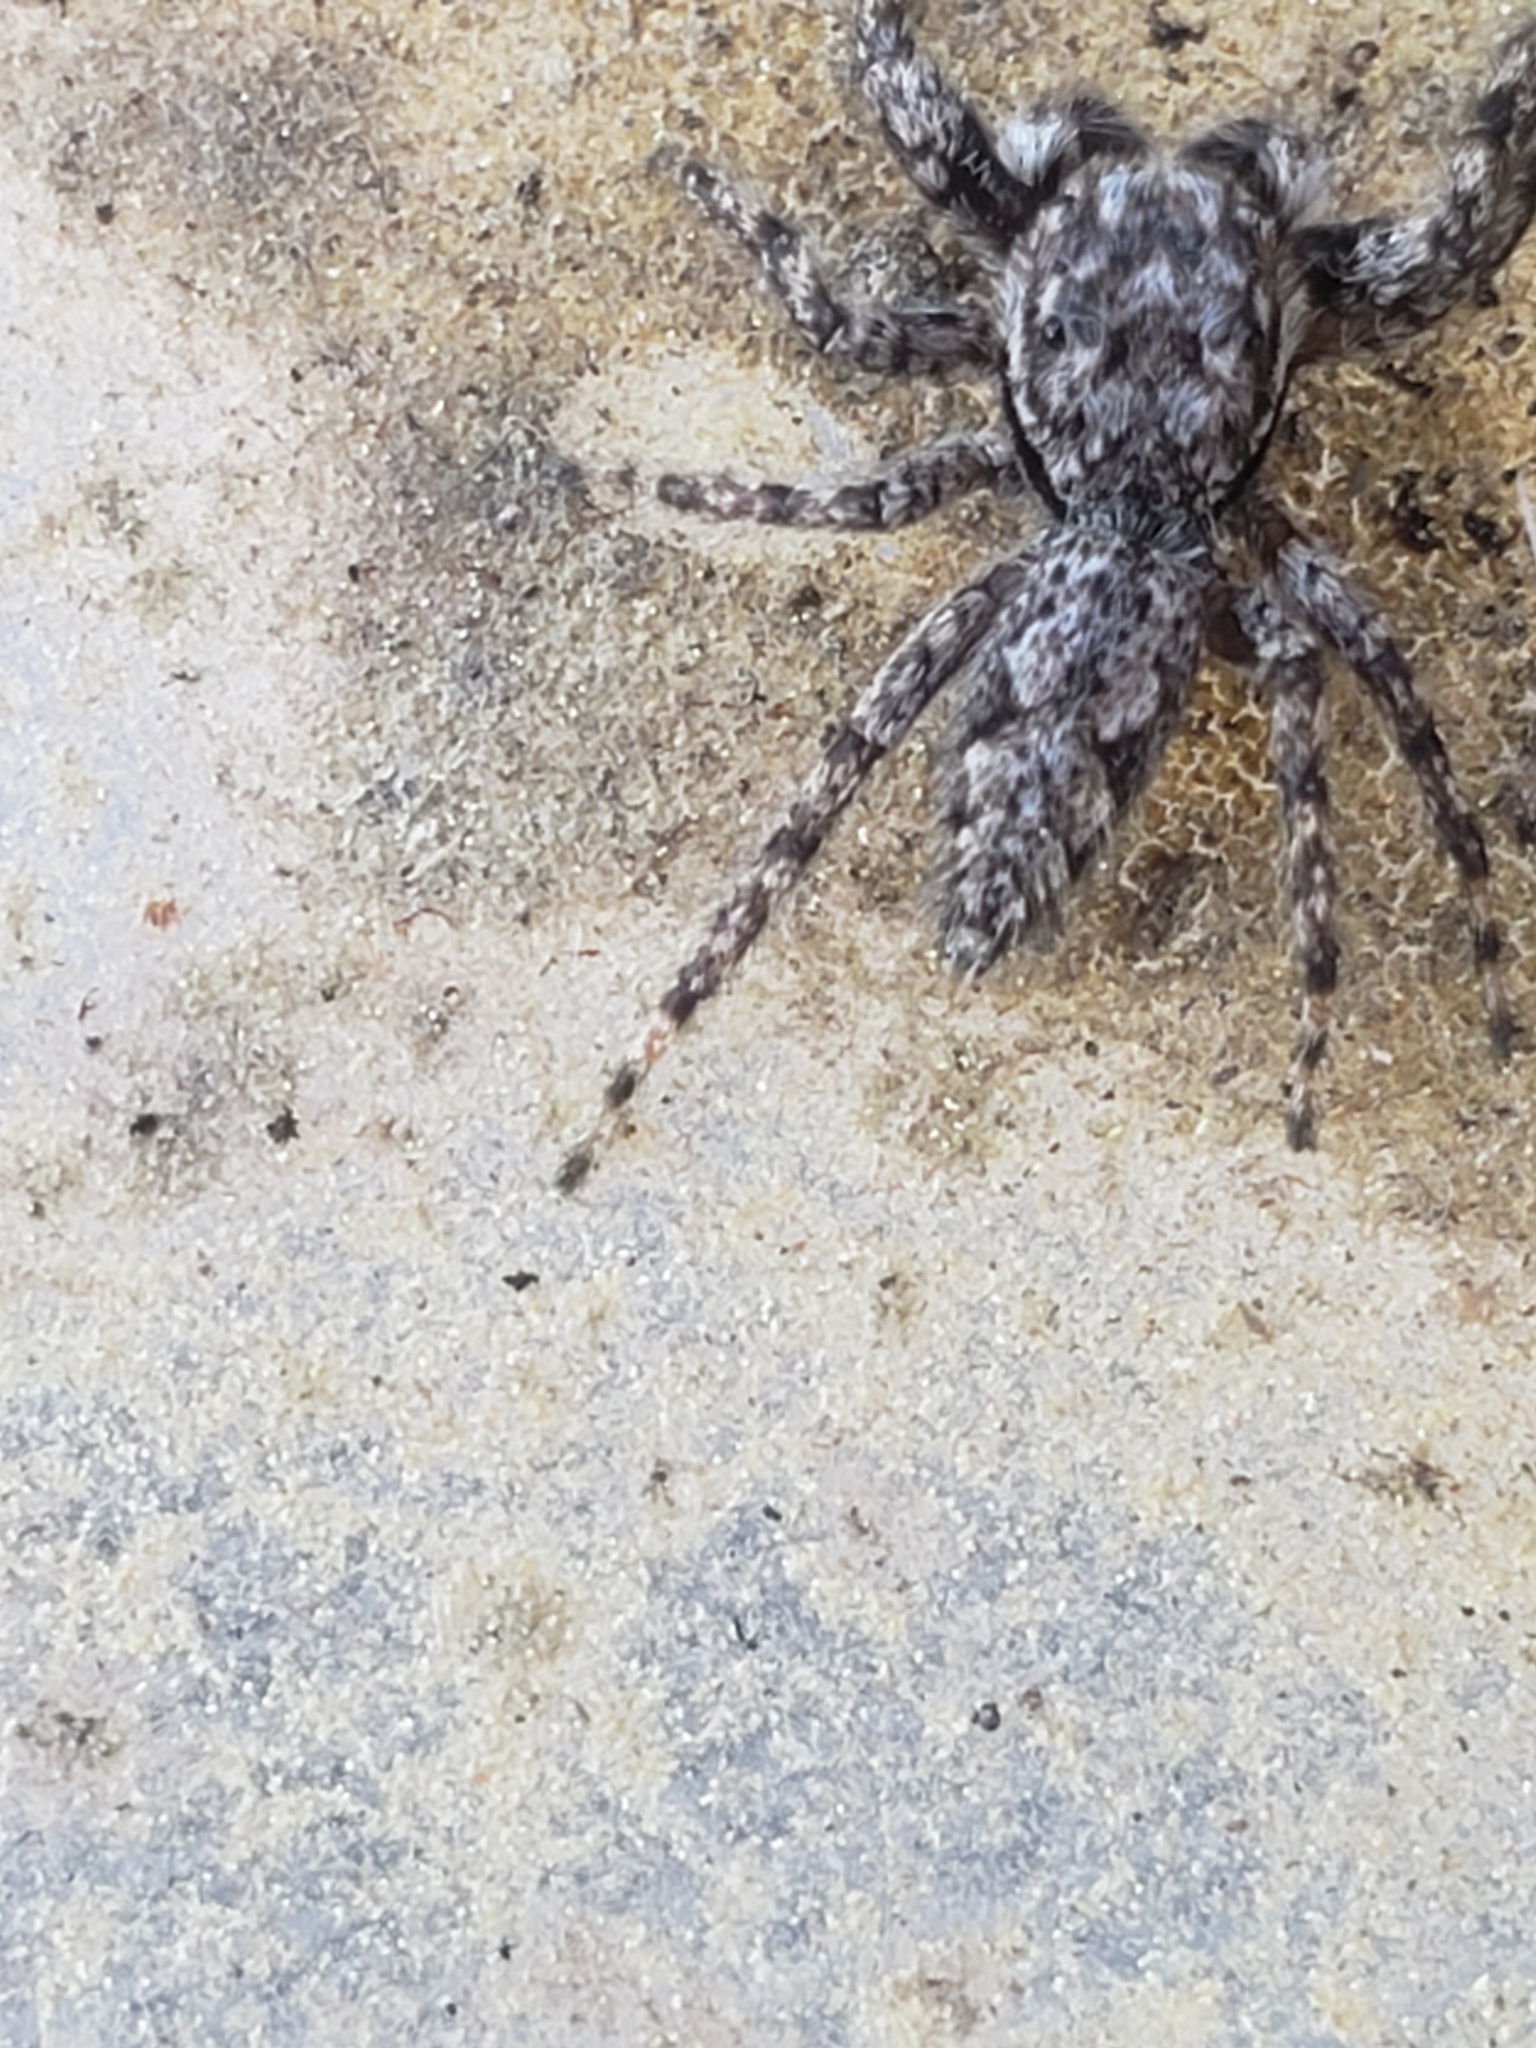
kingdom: Animalia
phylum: Arthropoda
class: Arachnida
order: Araneae
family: Salticidae
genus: Platycryptus
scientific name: Platycryptus undatus
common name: Tan jumping spider
